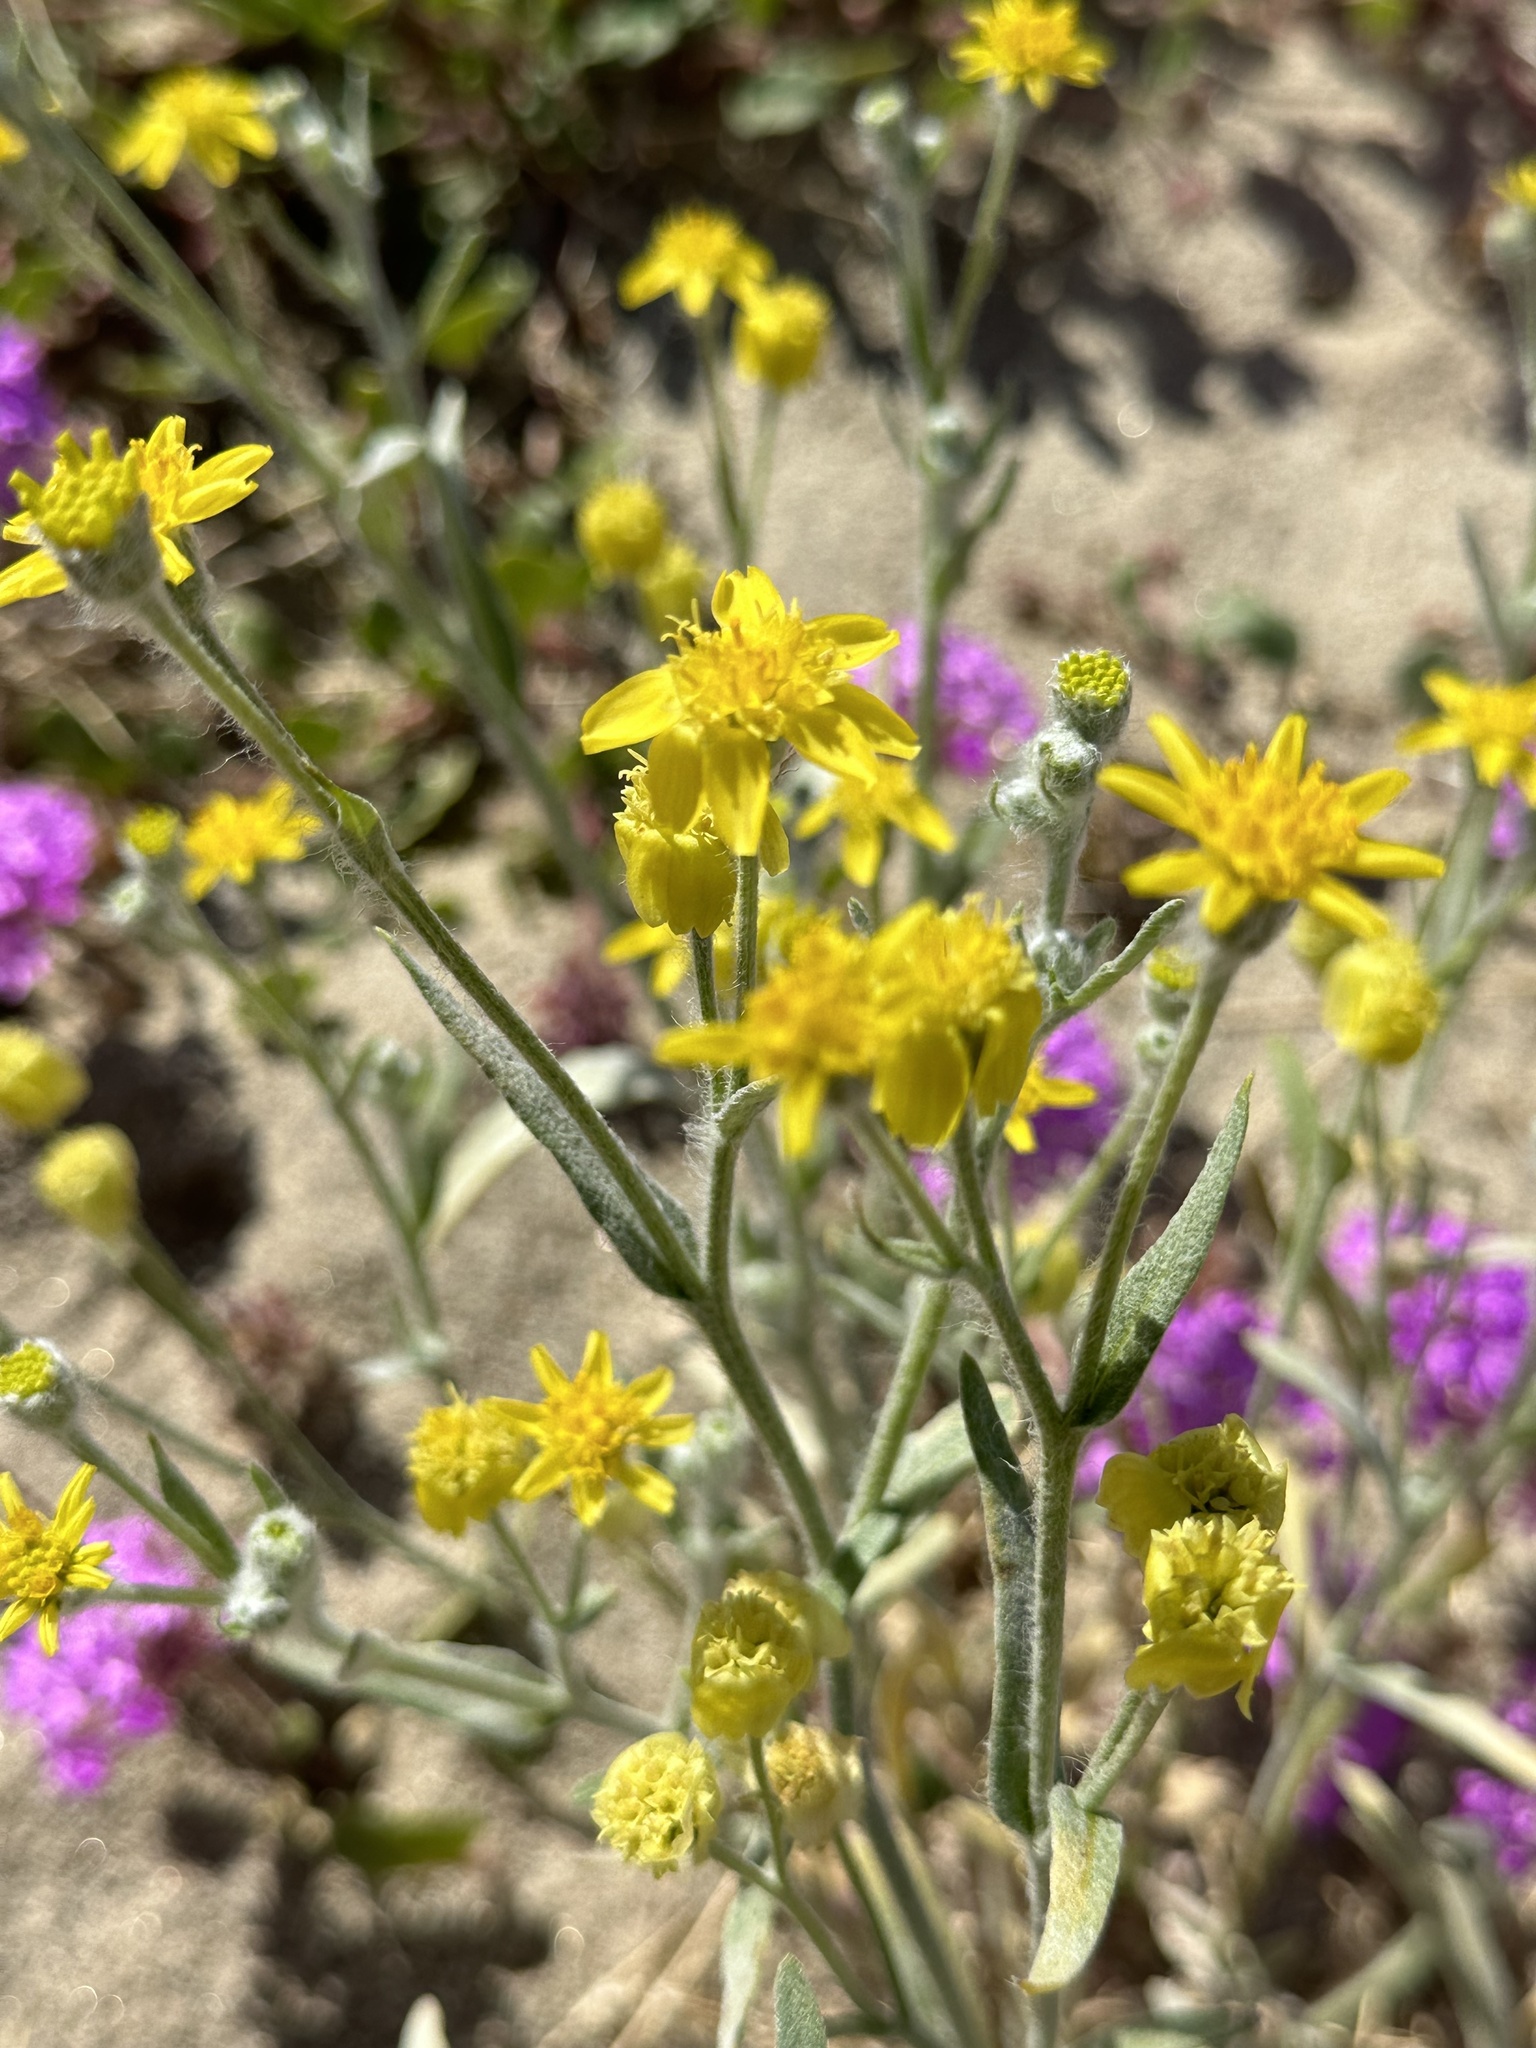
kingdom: Plantae
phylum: Tracheophyta
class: Magnoliopsida
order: Asterales
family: Asteraceae
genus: Baileya
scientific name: Baileya pauciradiata
